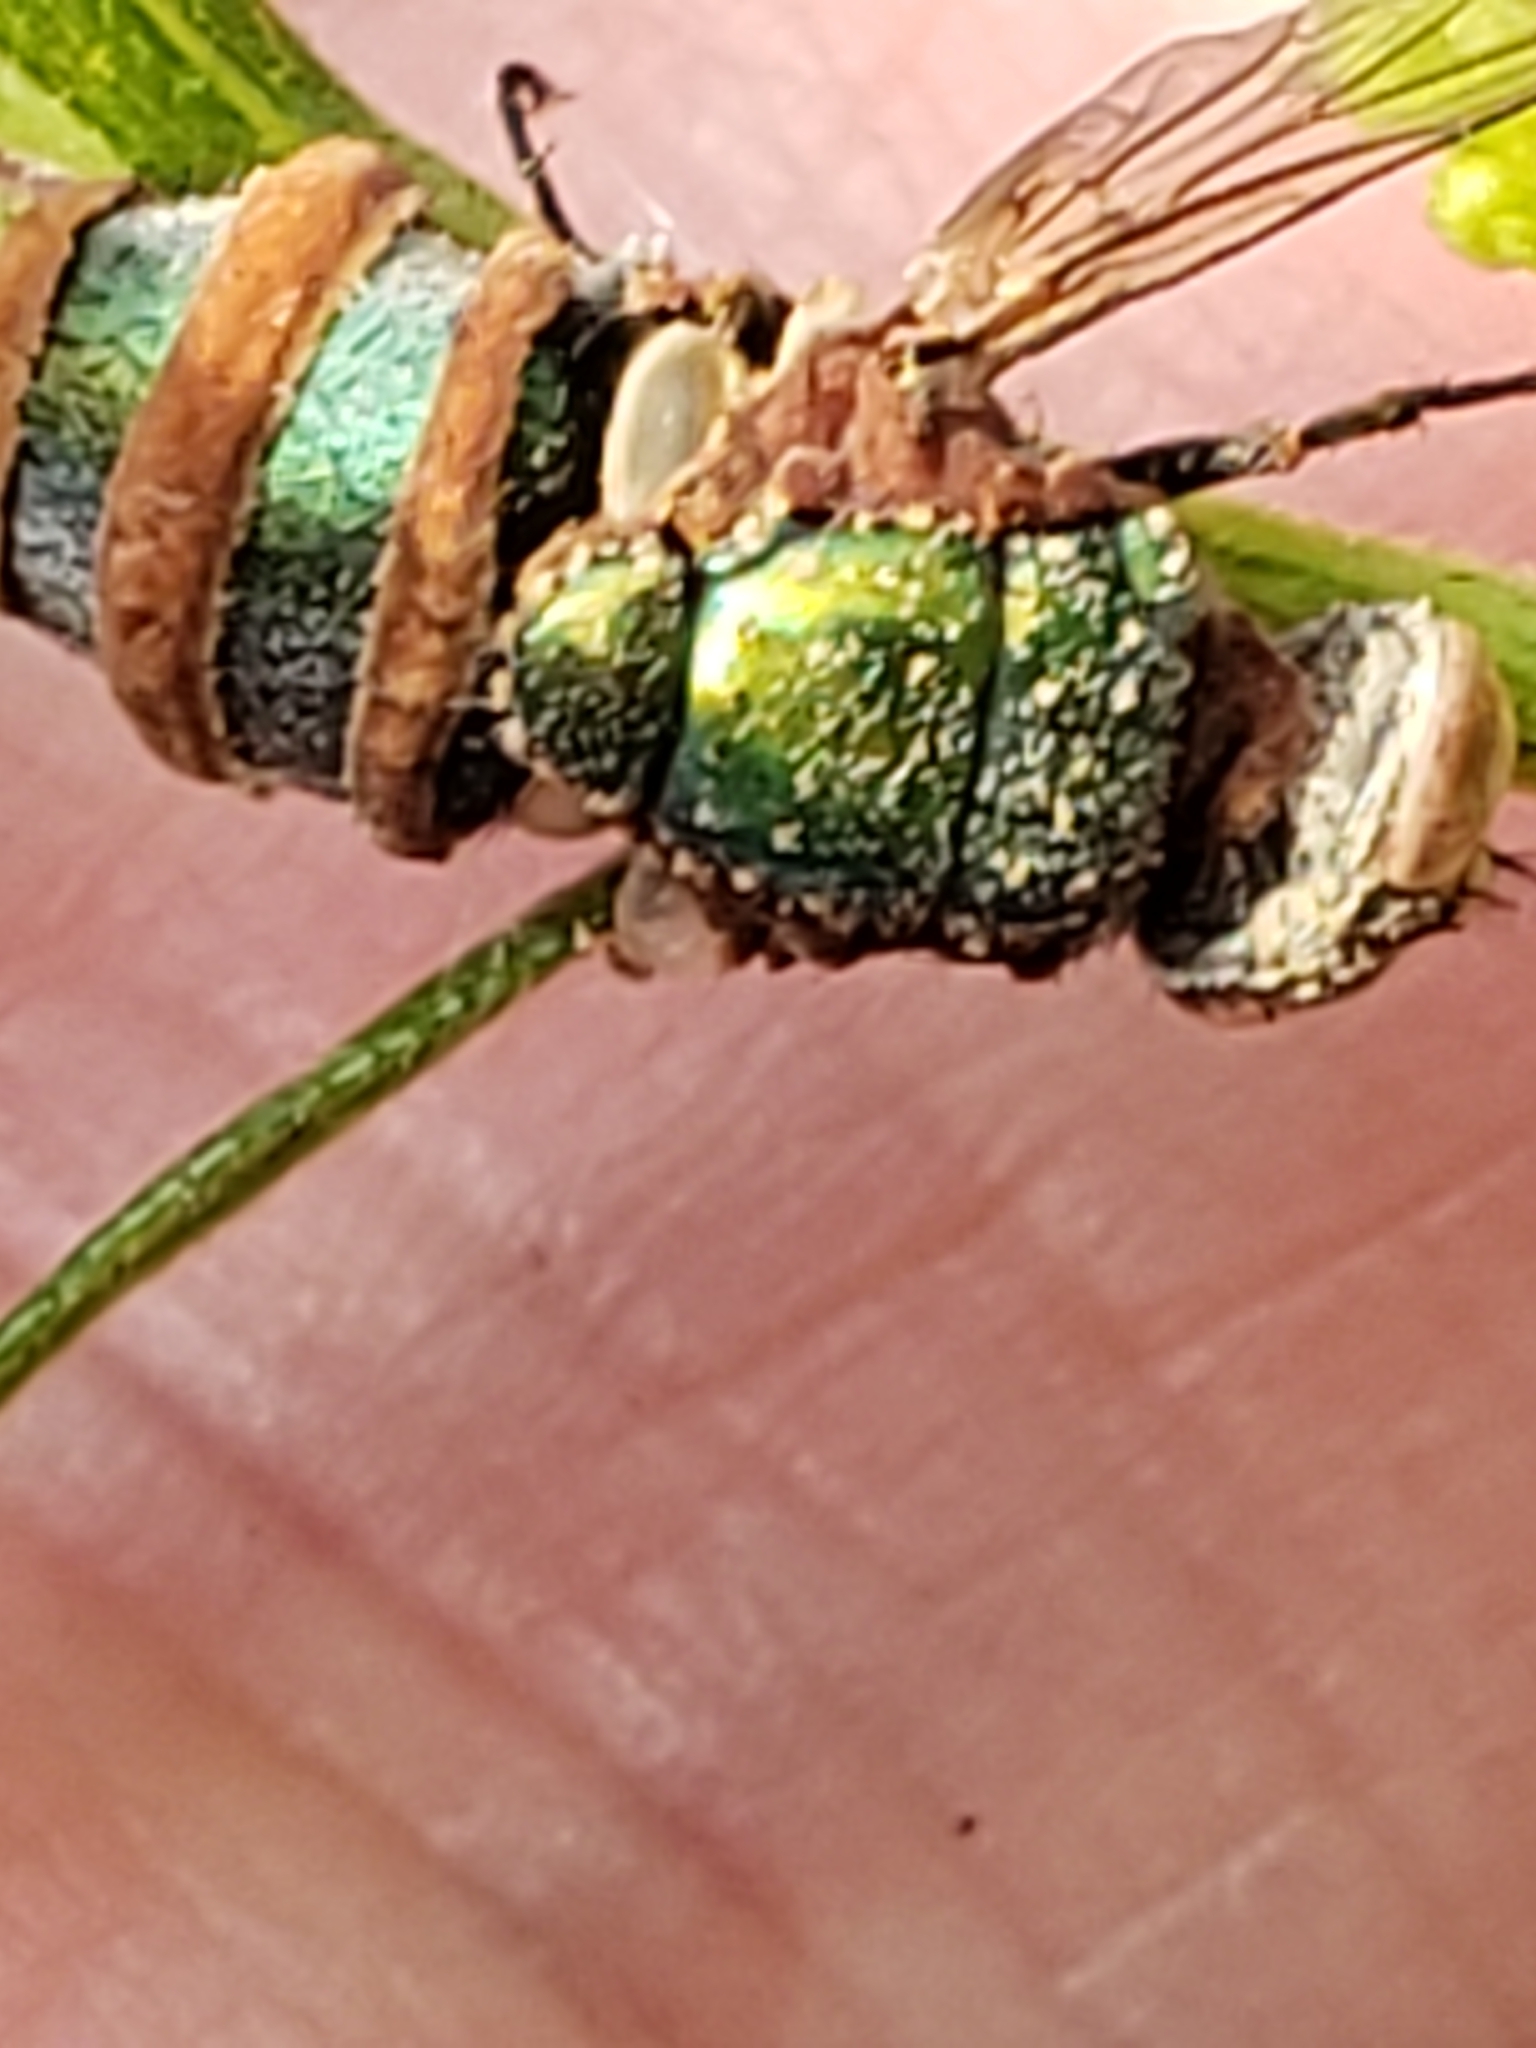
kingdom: Fungi
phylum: Entomophthoromycota
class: Entomophthoromycetes
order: Entomophthorales
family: Entomophthoraceae
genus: Entomophthora
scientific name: Entomophthora
